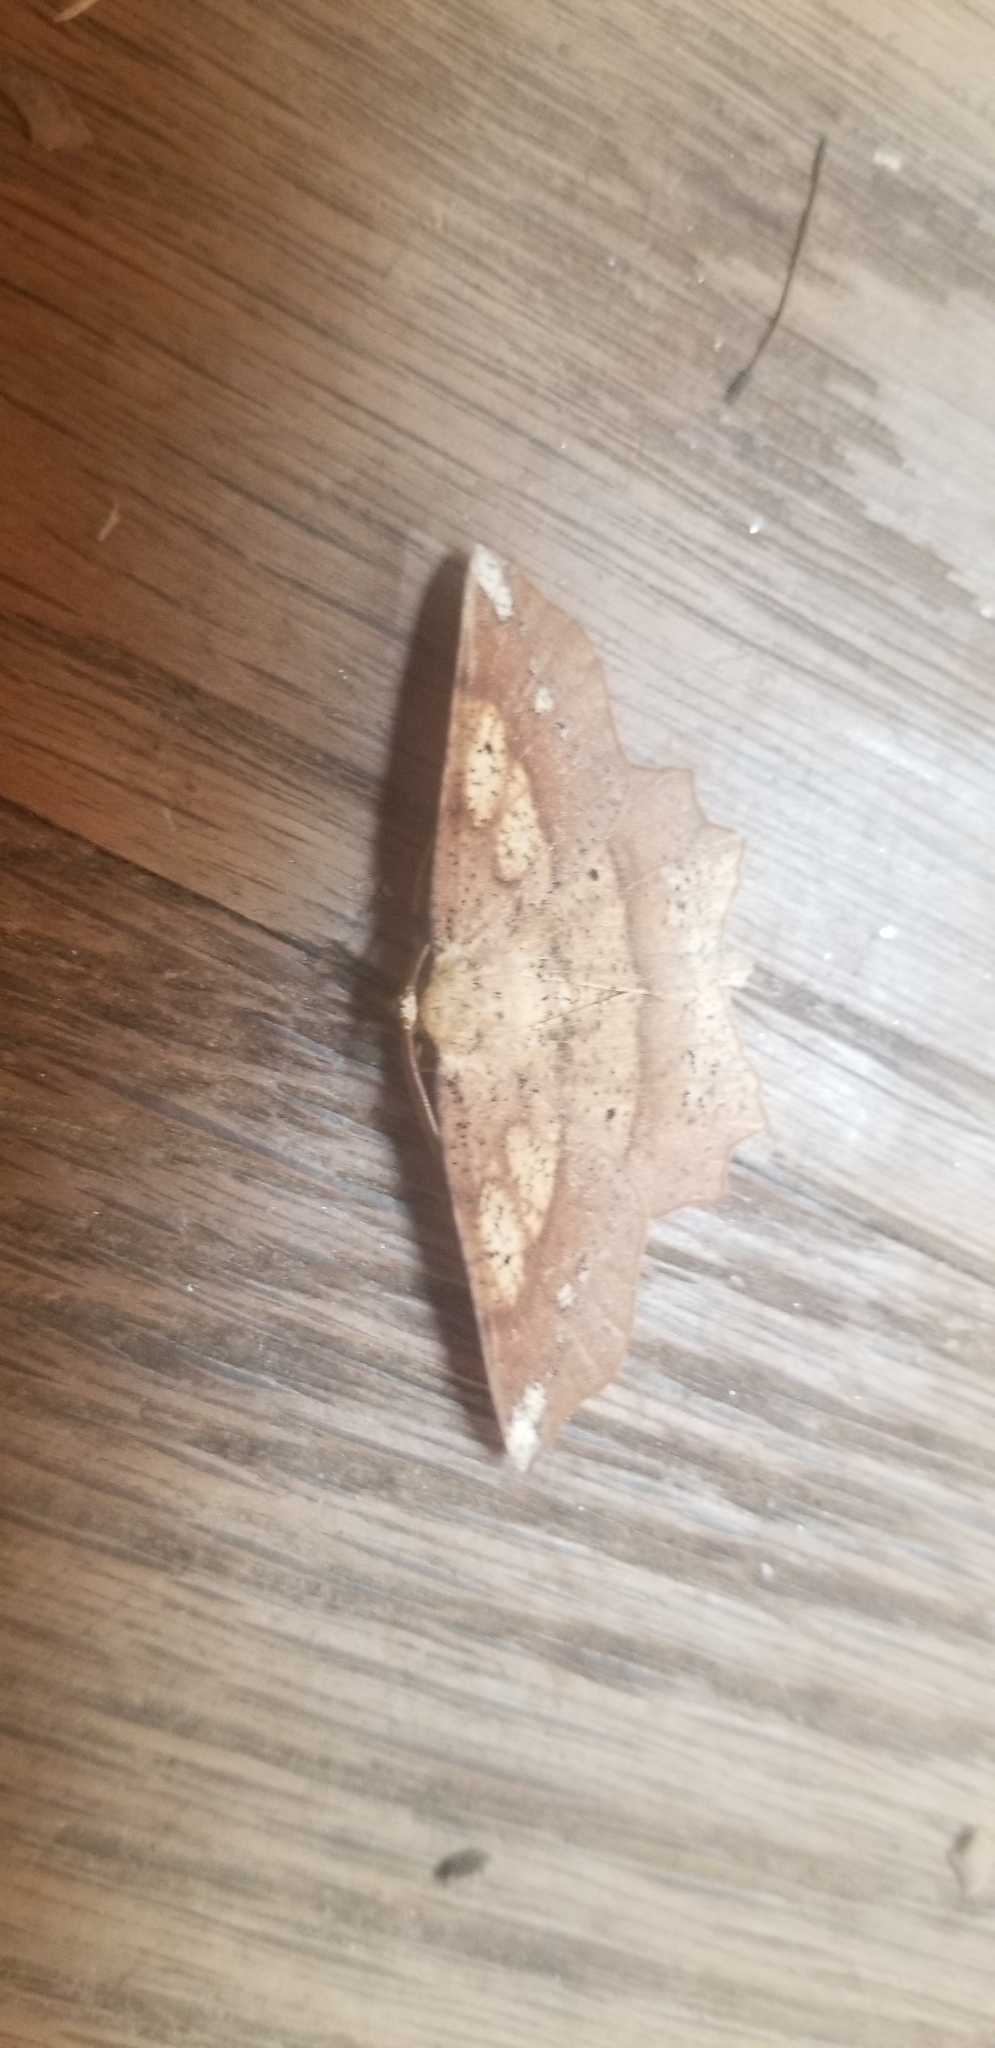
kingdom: Animalia
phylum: Arthropoda
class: Insecta
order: Lepidoptera
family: Geometridae
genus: Euchlaena
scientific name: Euchlaena amoenaria
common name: Deep yellow euchlaena
